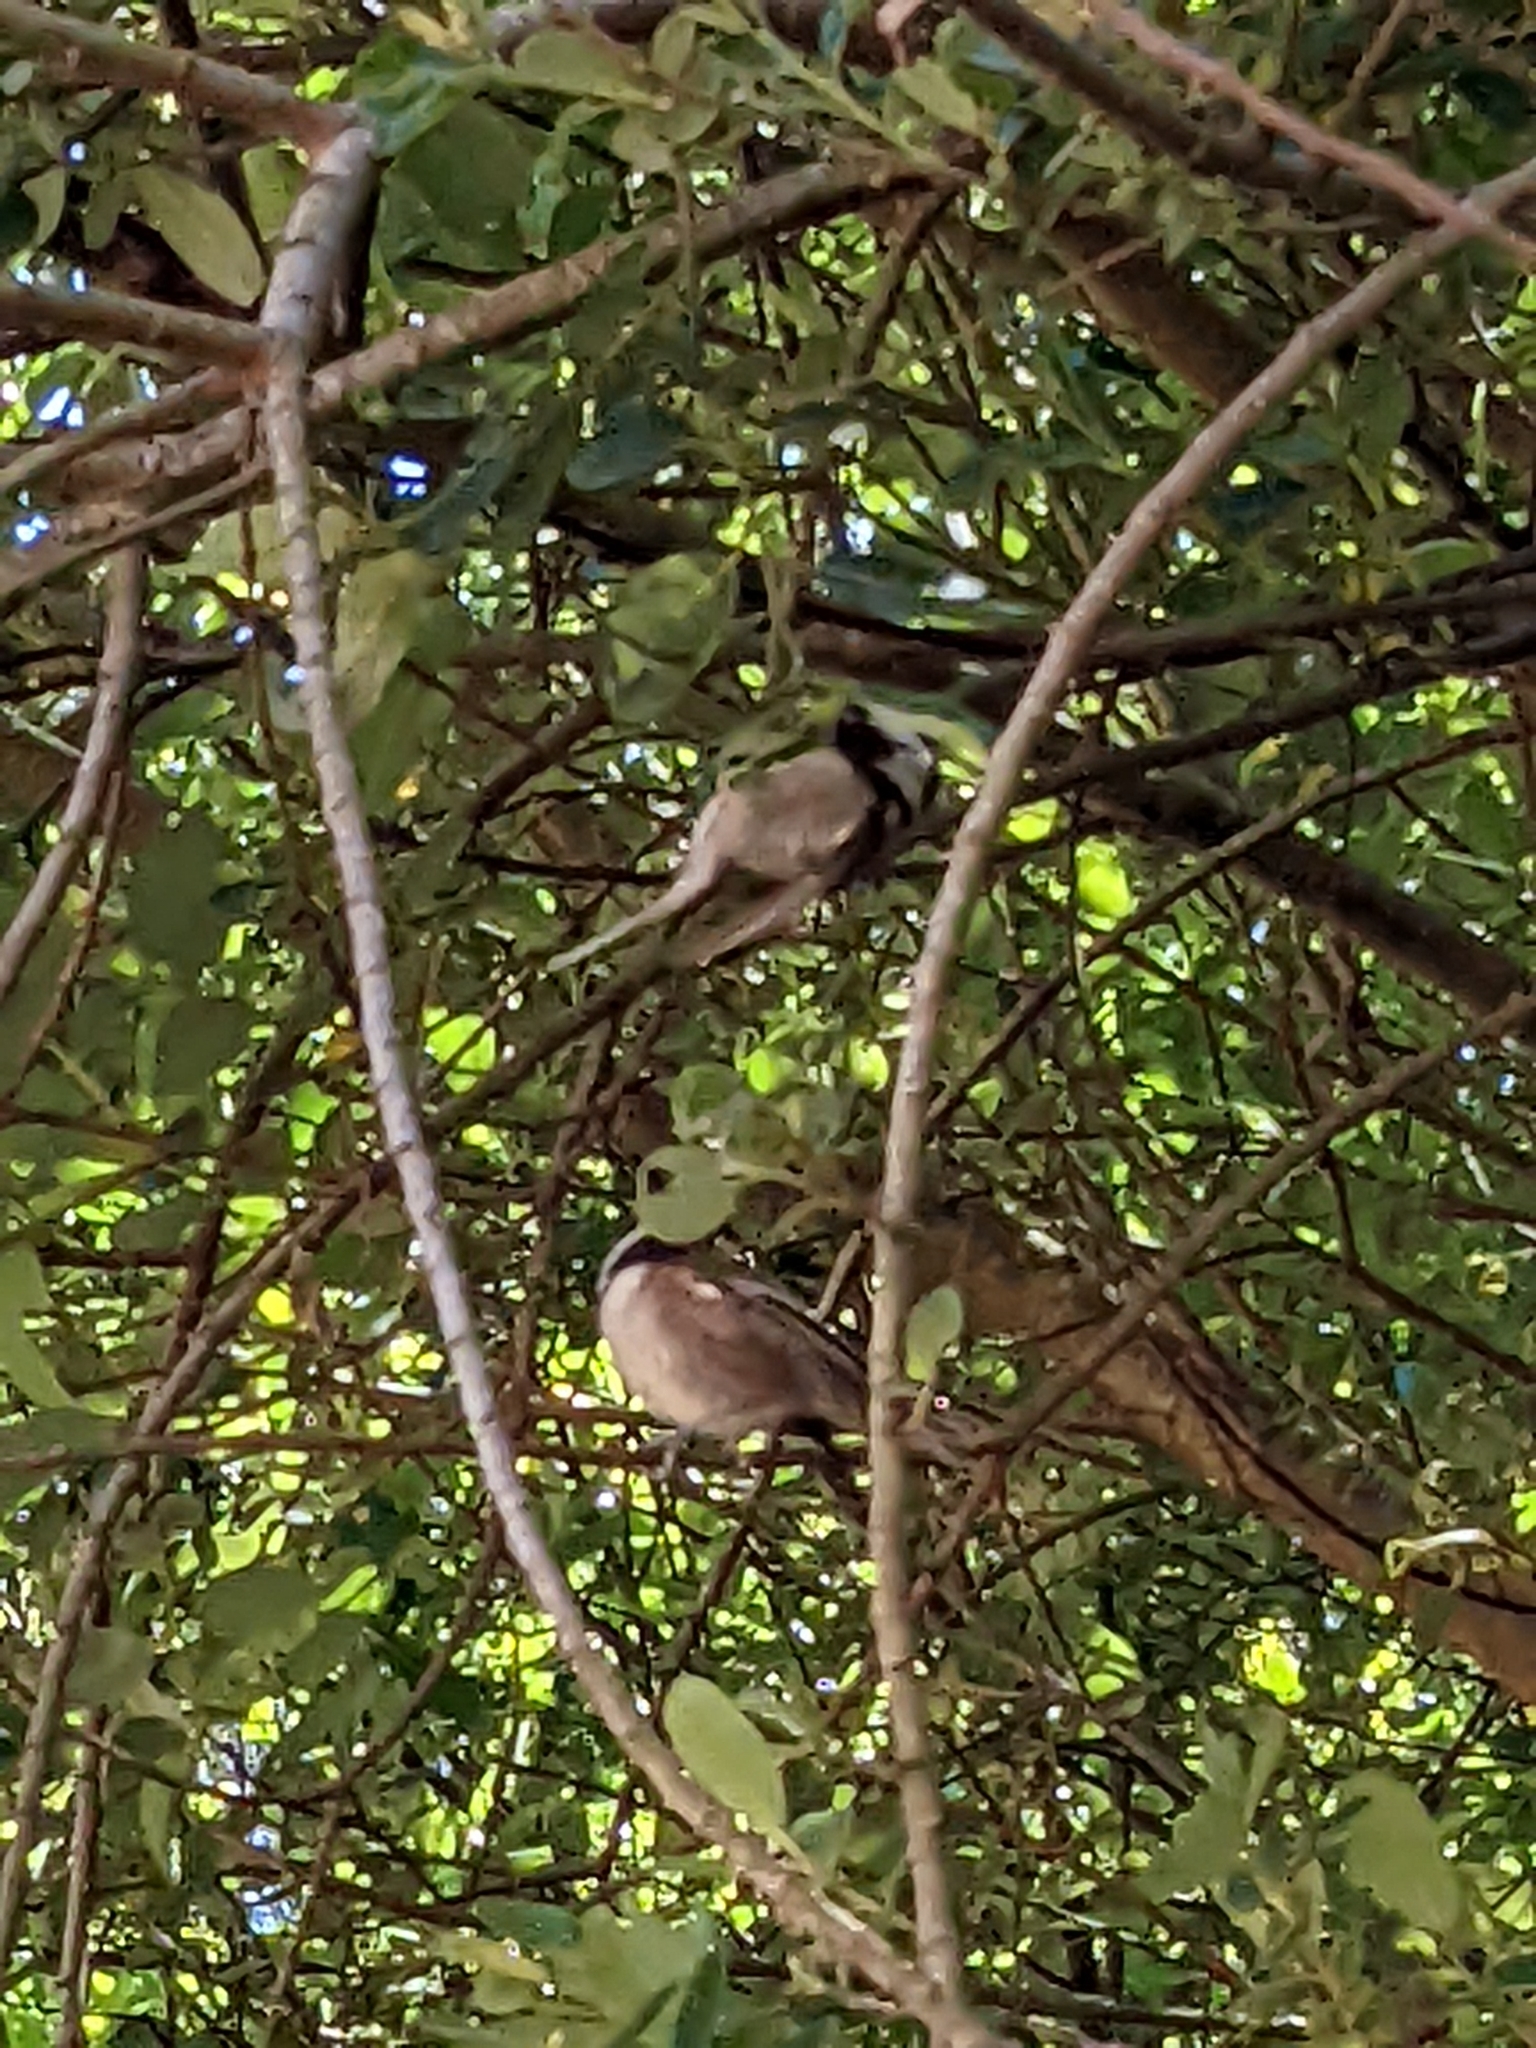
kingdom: Animalia
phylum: Chordata
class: Aves
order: Passeriformes
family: Paridae
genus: Poecile
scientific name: Poecile rufescens
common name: Chestnut-backed chickadee
